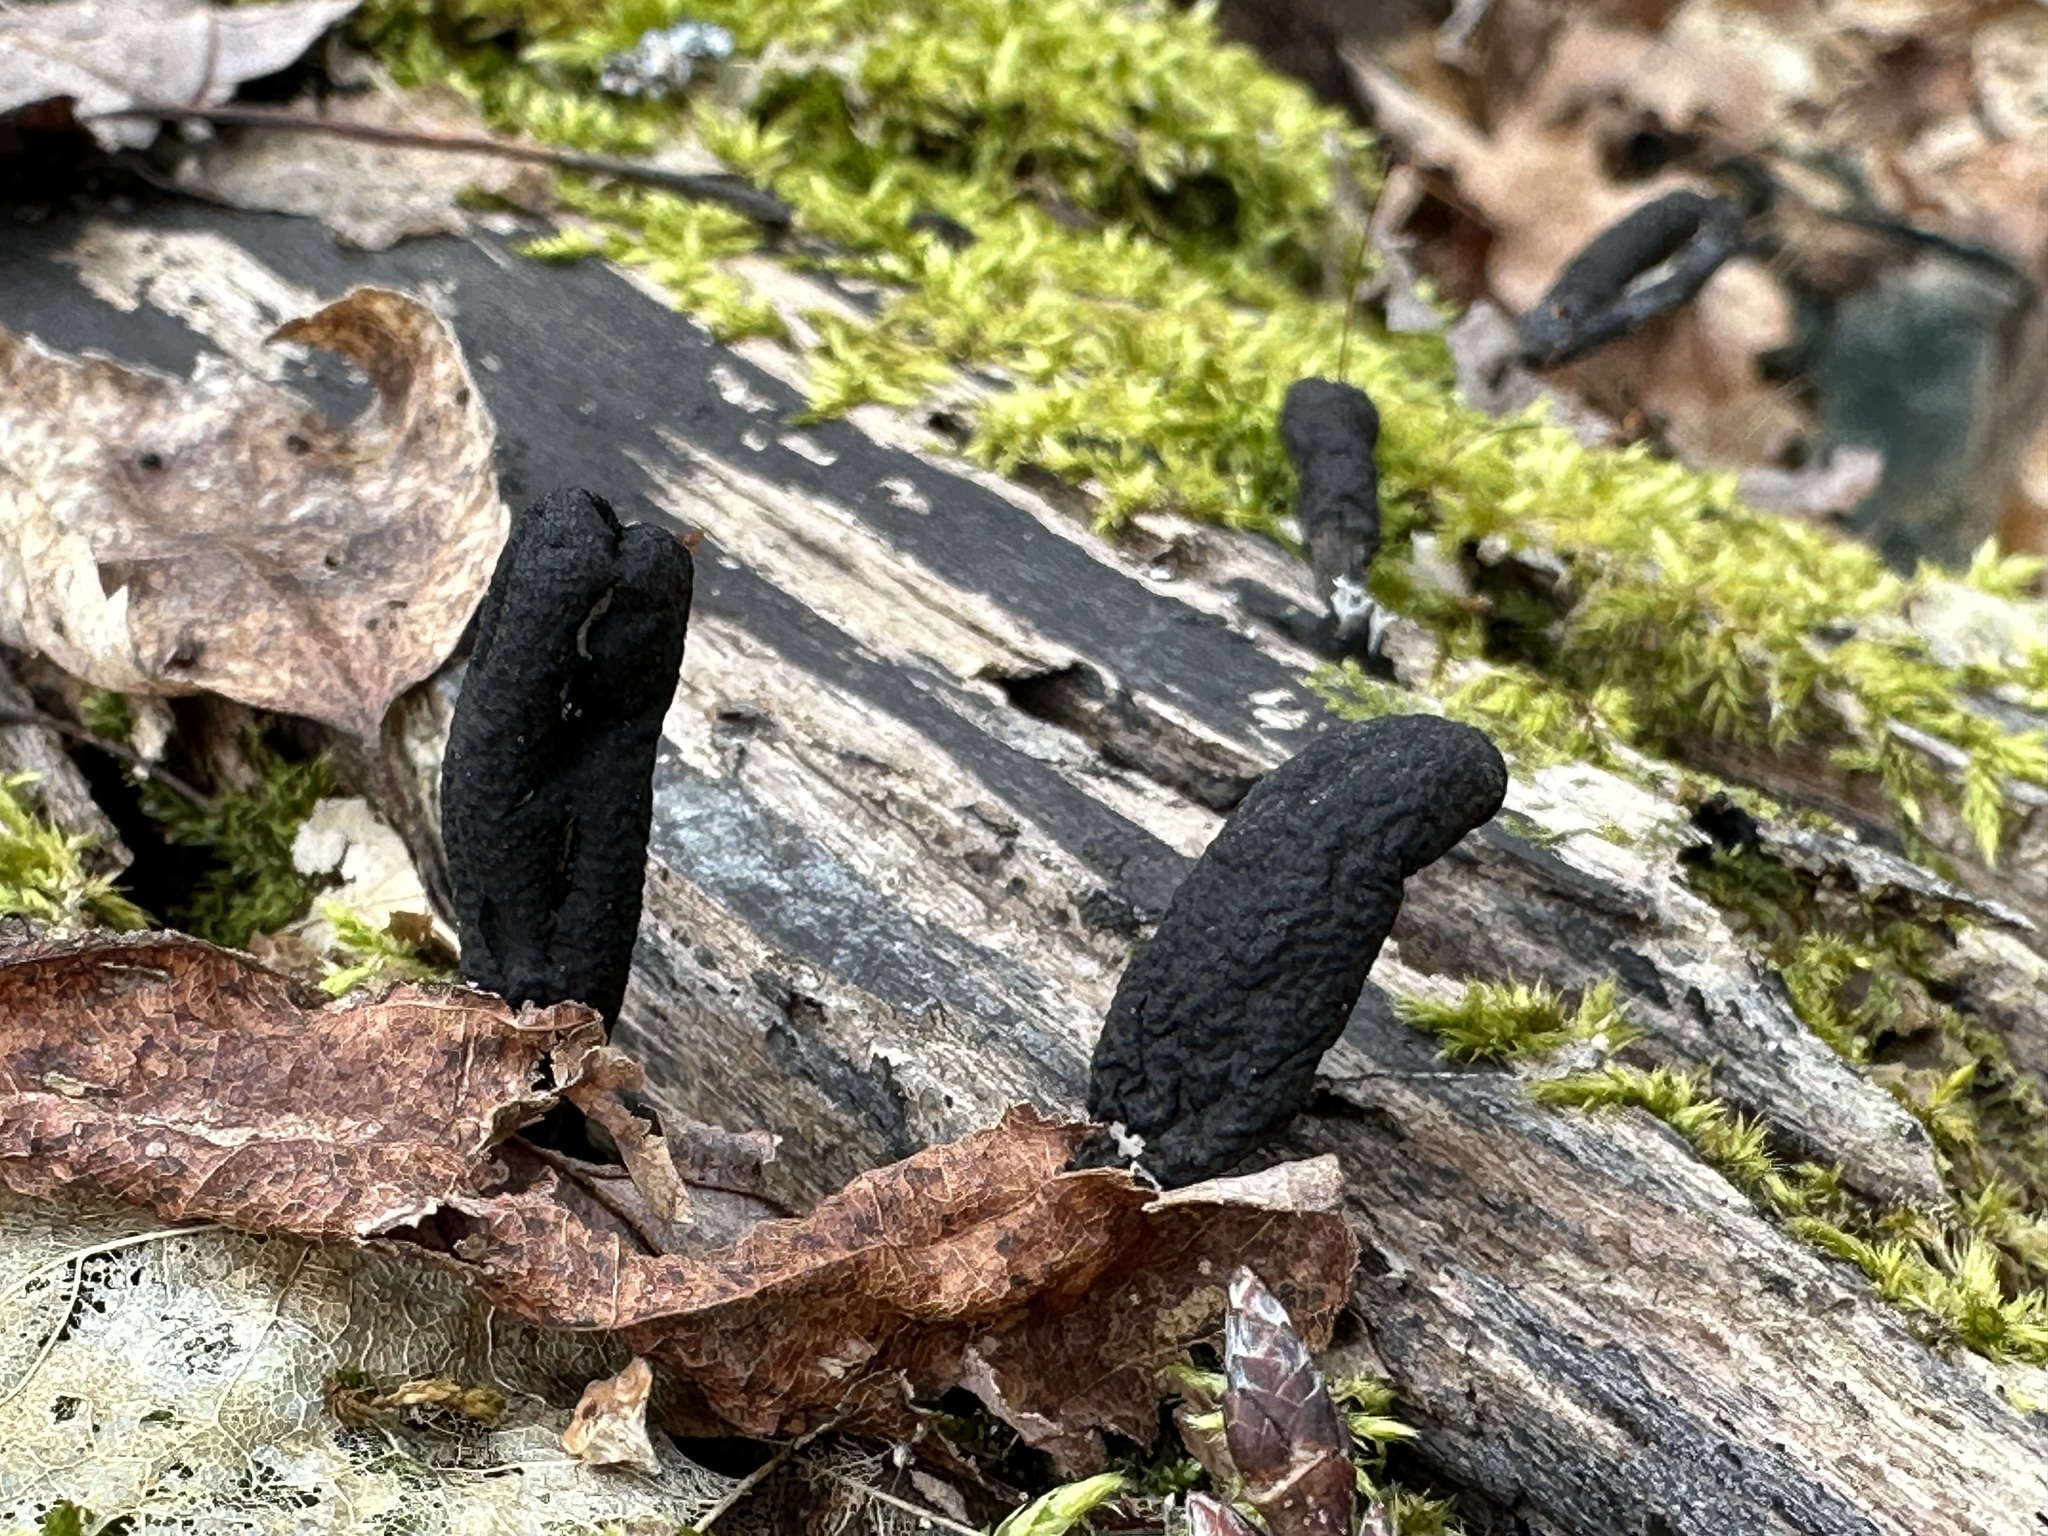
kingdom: Fungi
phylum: Ascomycota
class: Sordariomycetes
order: Xylariales
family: Xylariaceae
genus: Xylaria
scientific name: Xylaria polymorpha
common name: Dead man's fingers
